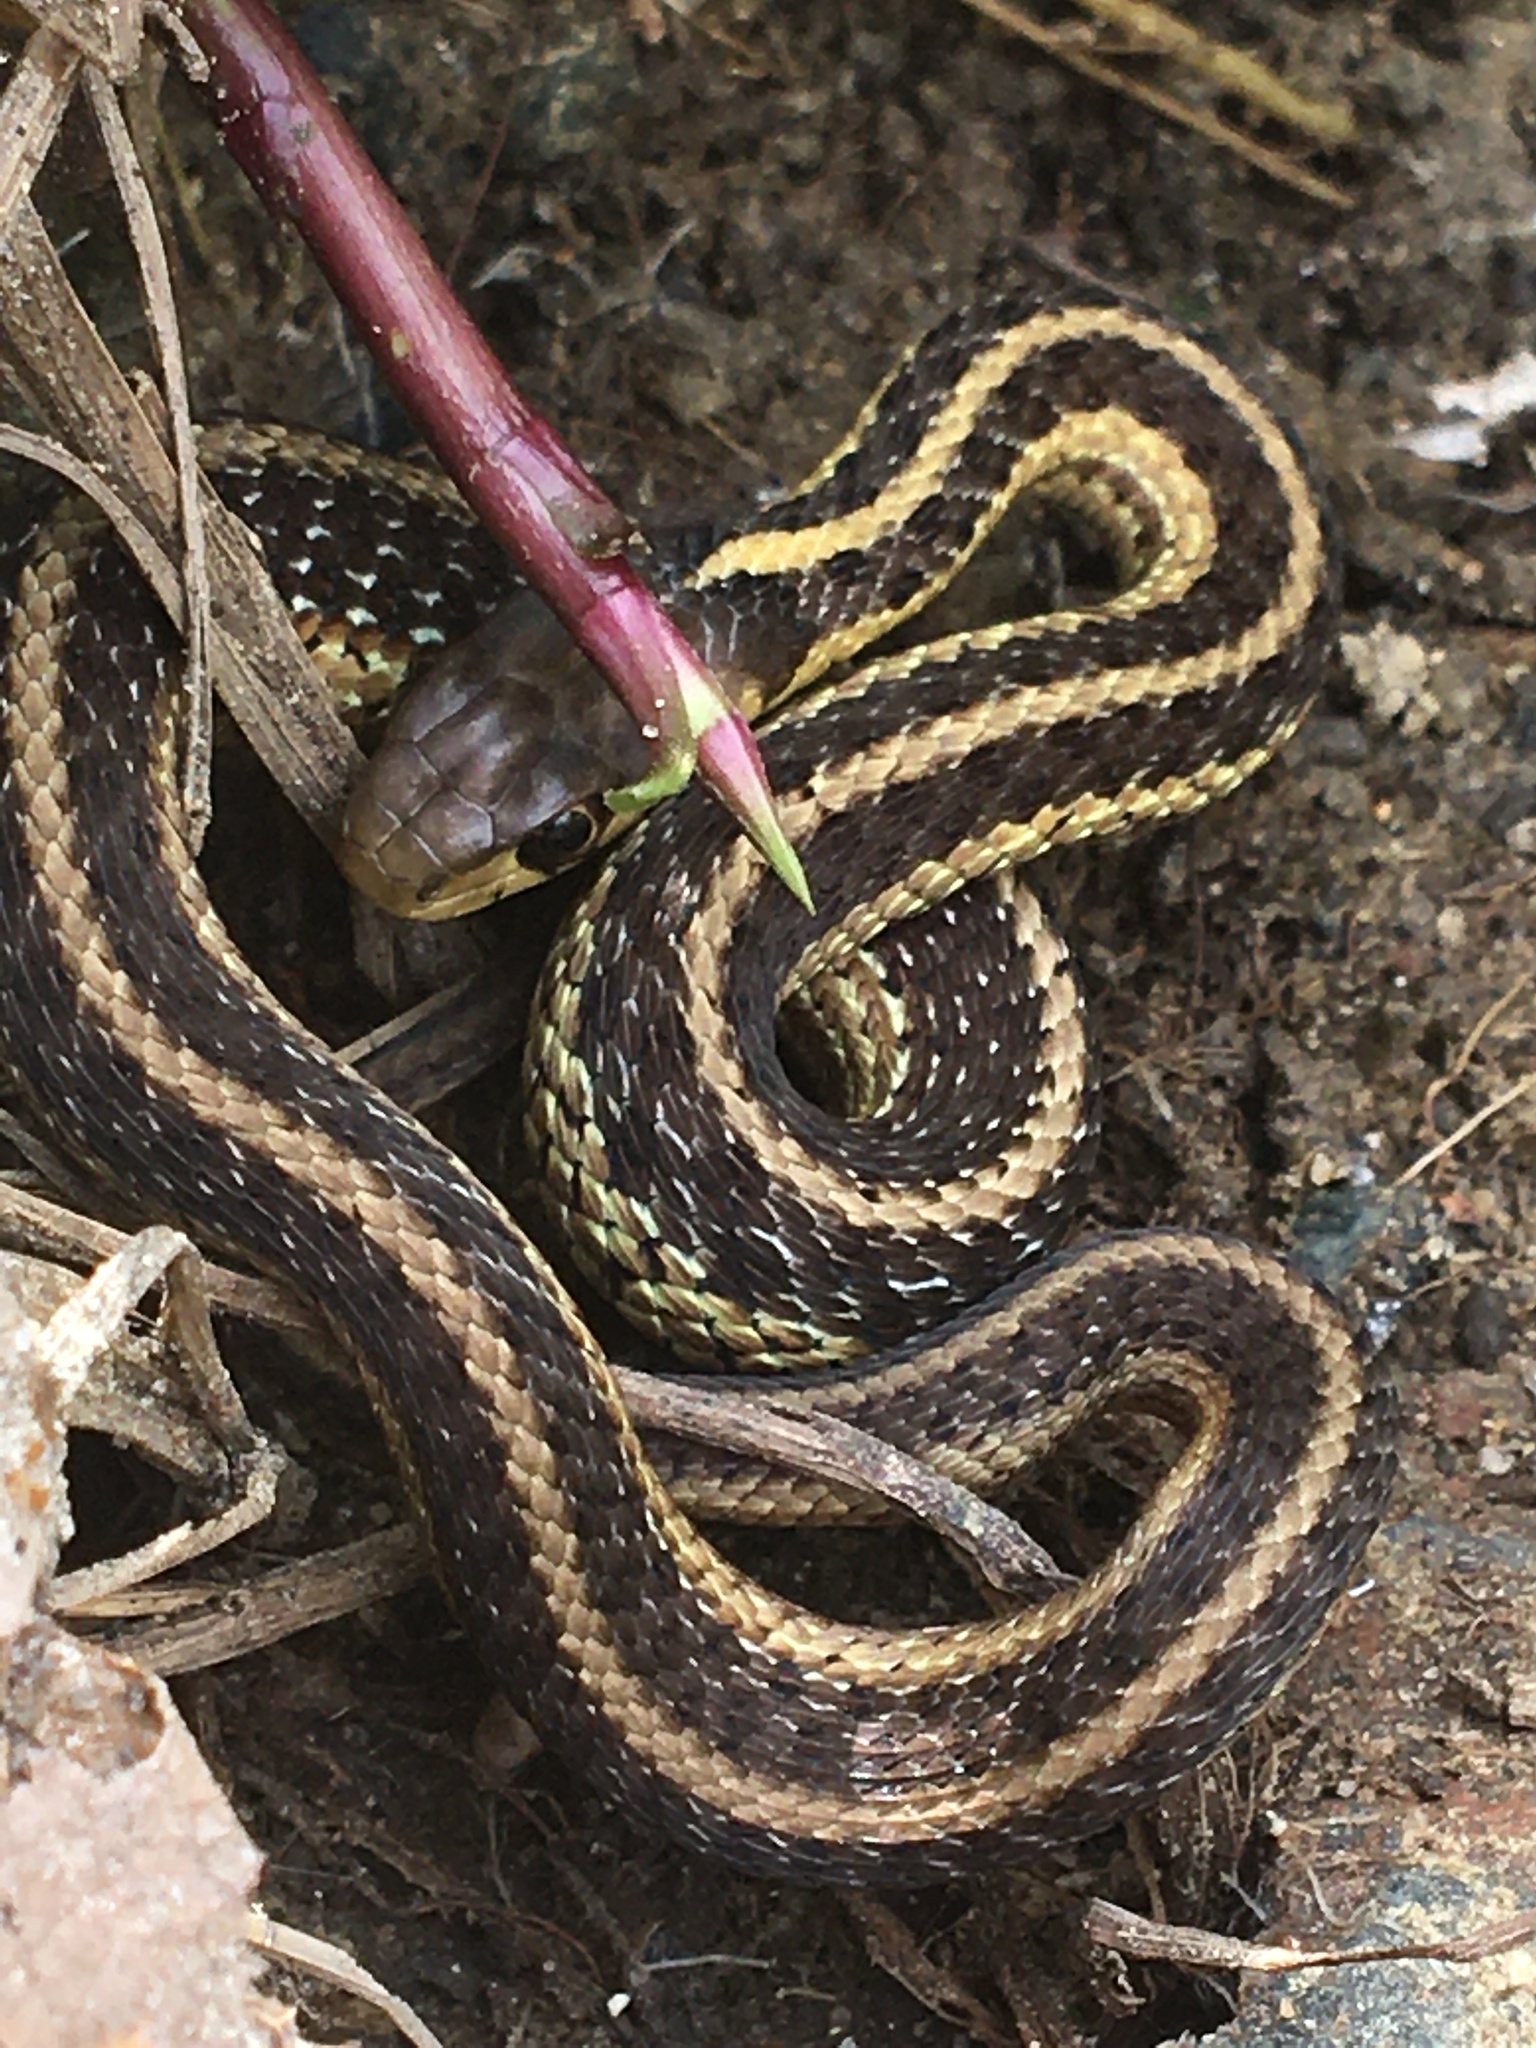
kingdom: Animalia
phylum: Chordata
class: Squamata
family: Colubridae
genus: Thamnophis
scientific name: Thamnophis sirtalis
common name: Common garter snake
